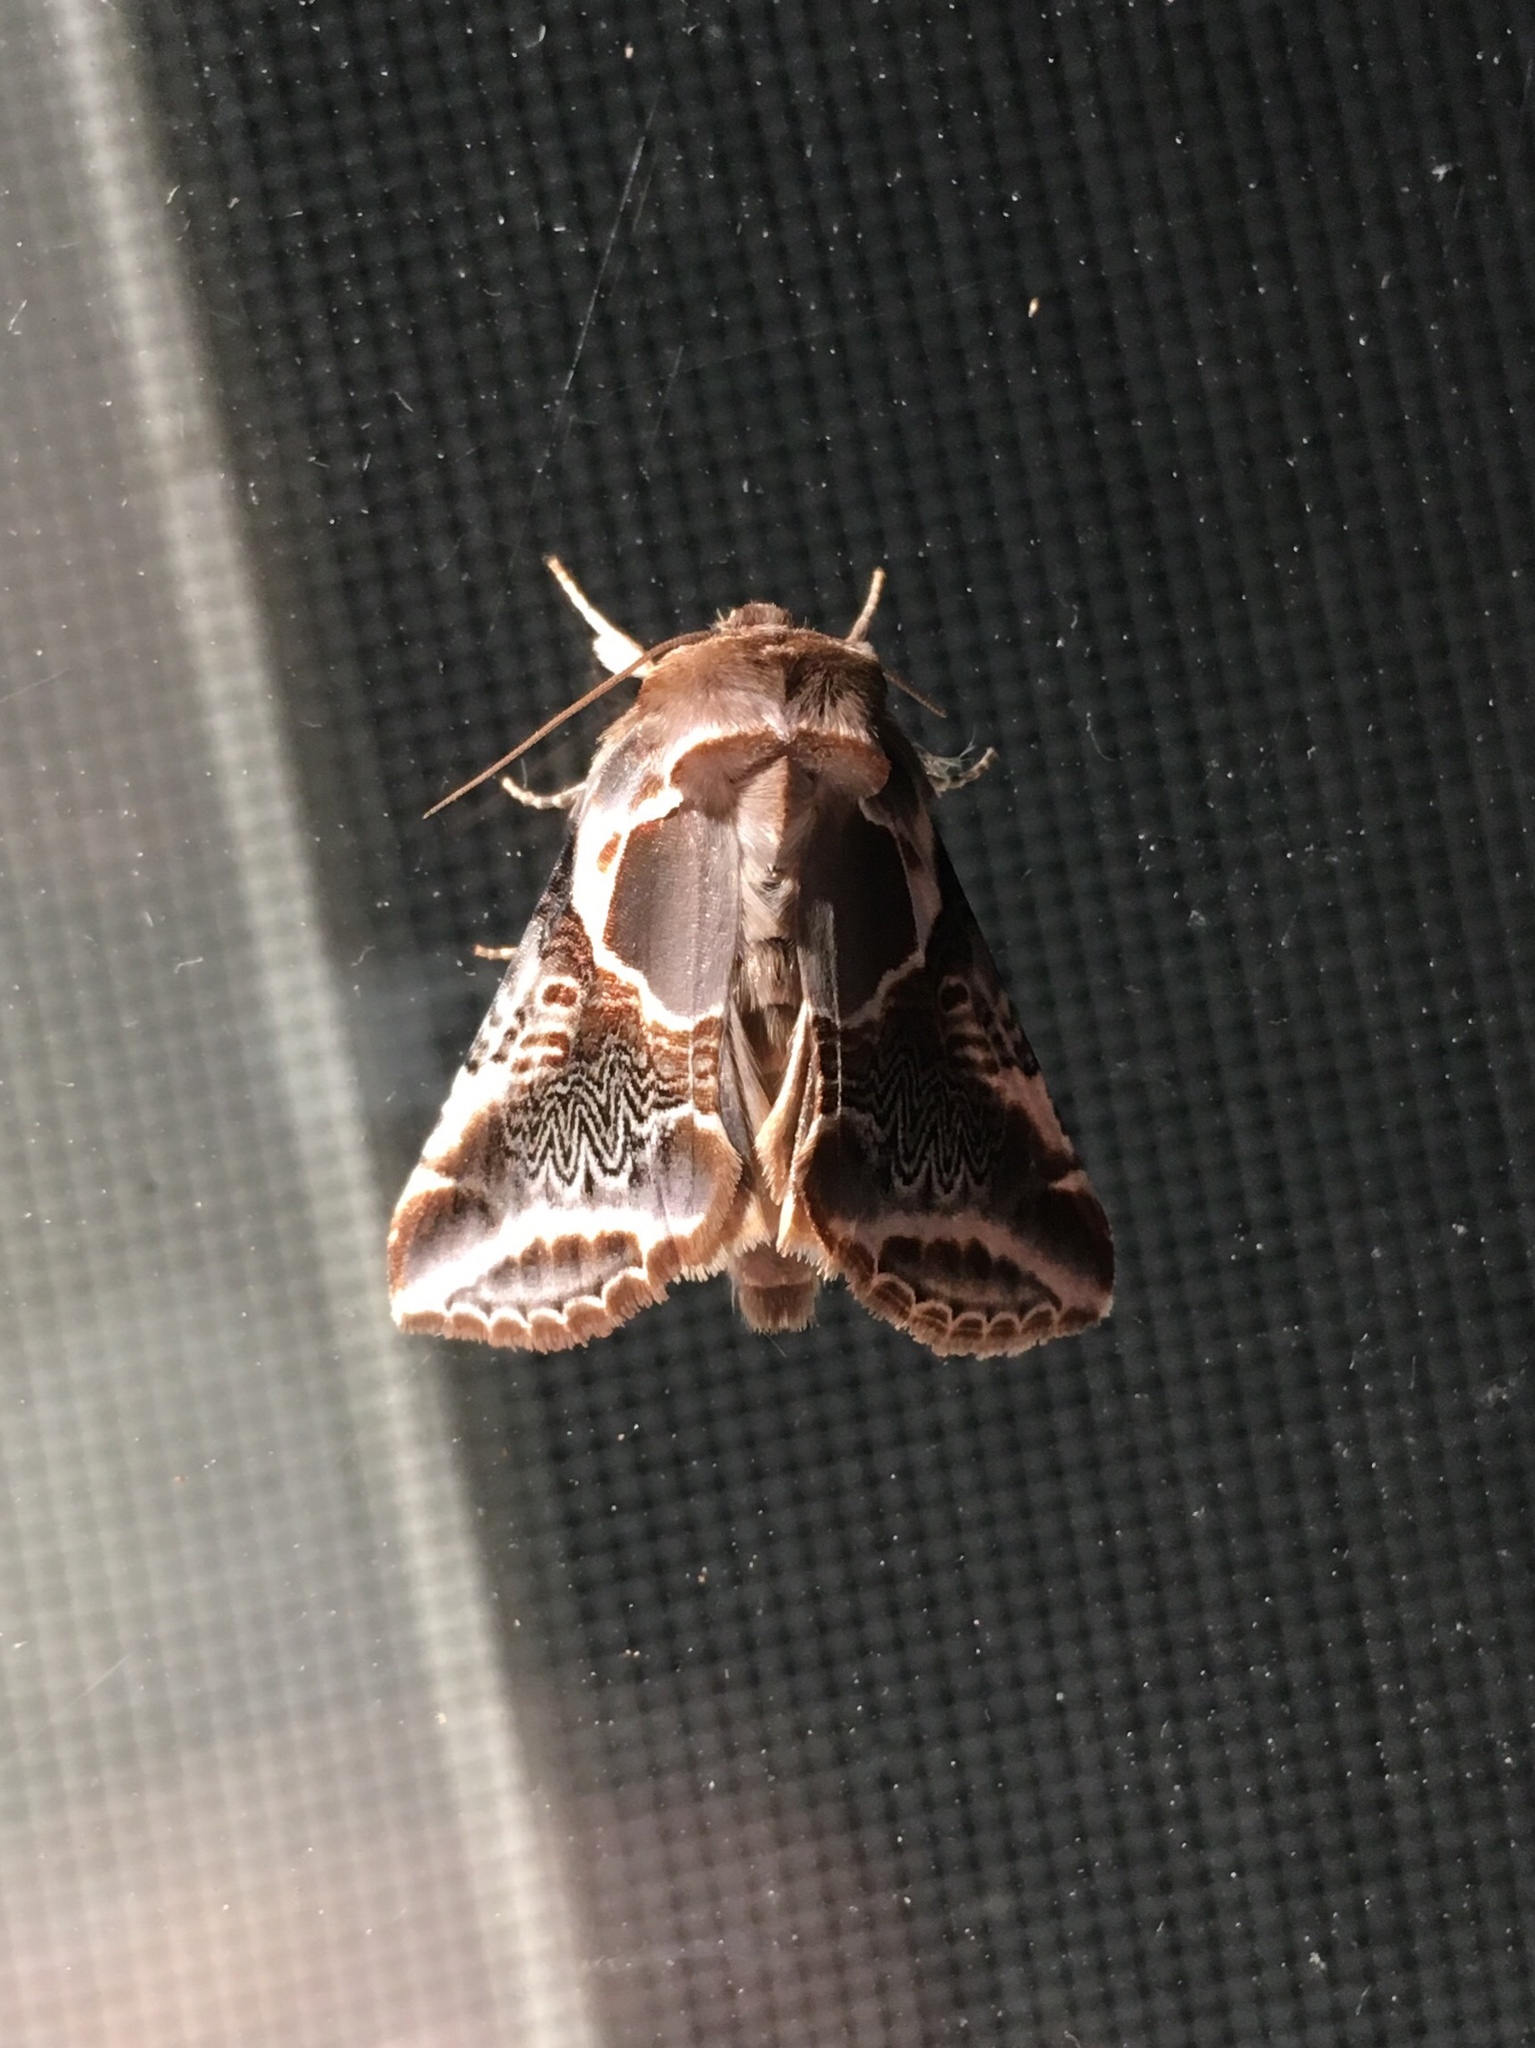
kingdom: Animalia
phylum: Arthropoda
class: Insecta
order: Lepidoptera
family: Drepanidae
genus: Habrosyne
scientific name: Habrosyne scripta
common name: Lettered habrosyne moth
